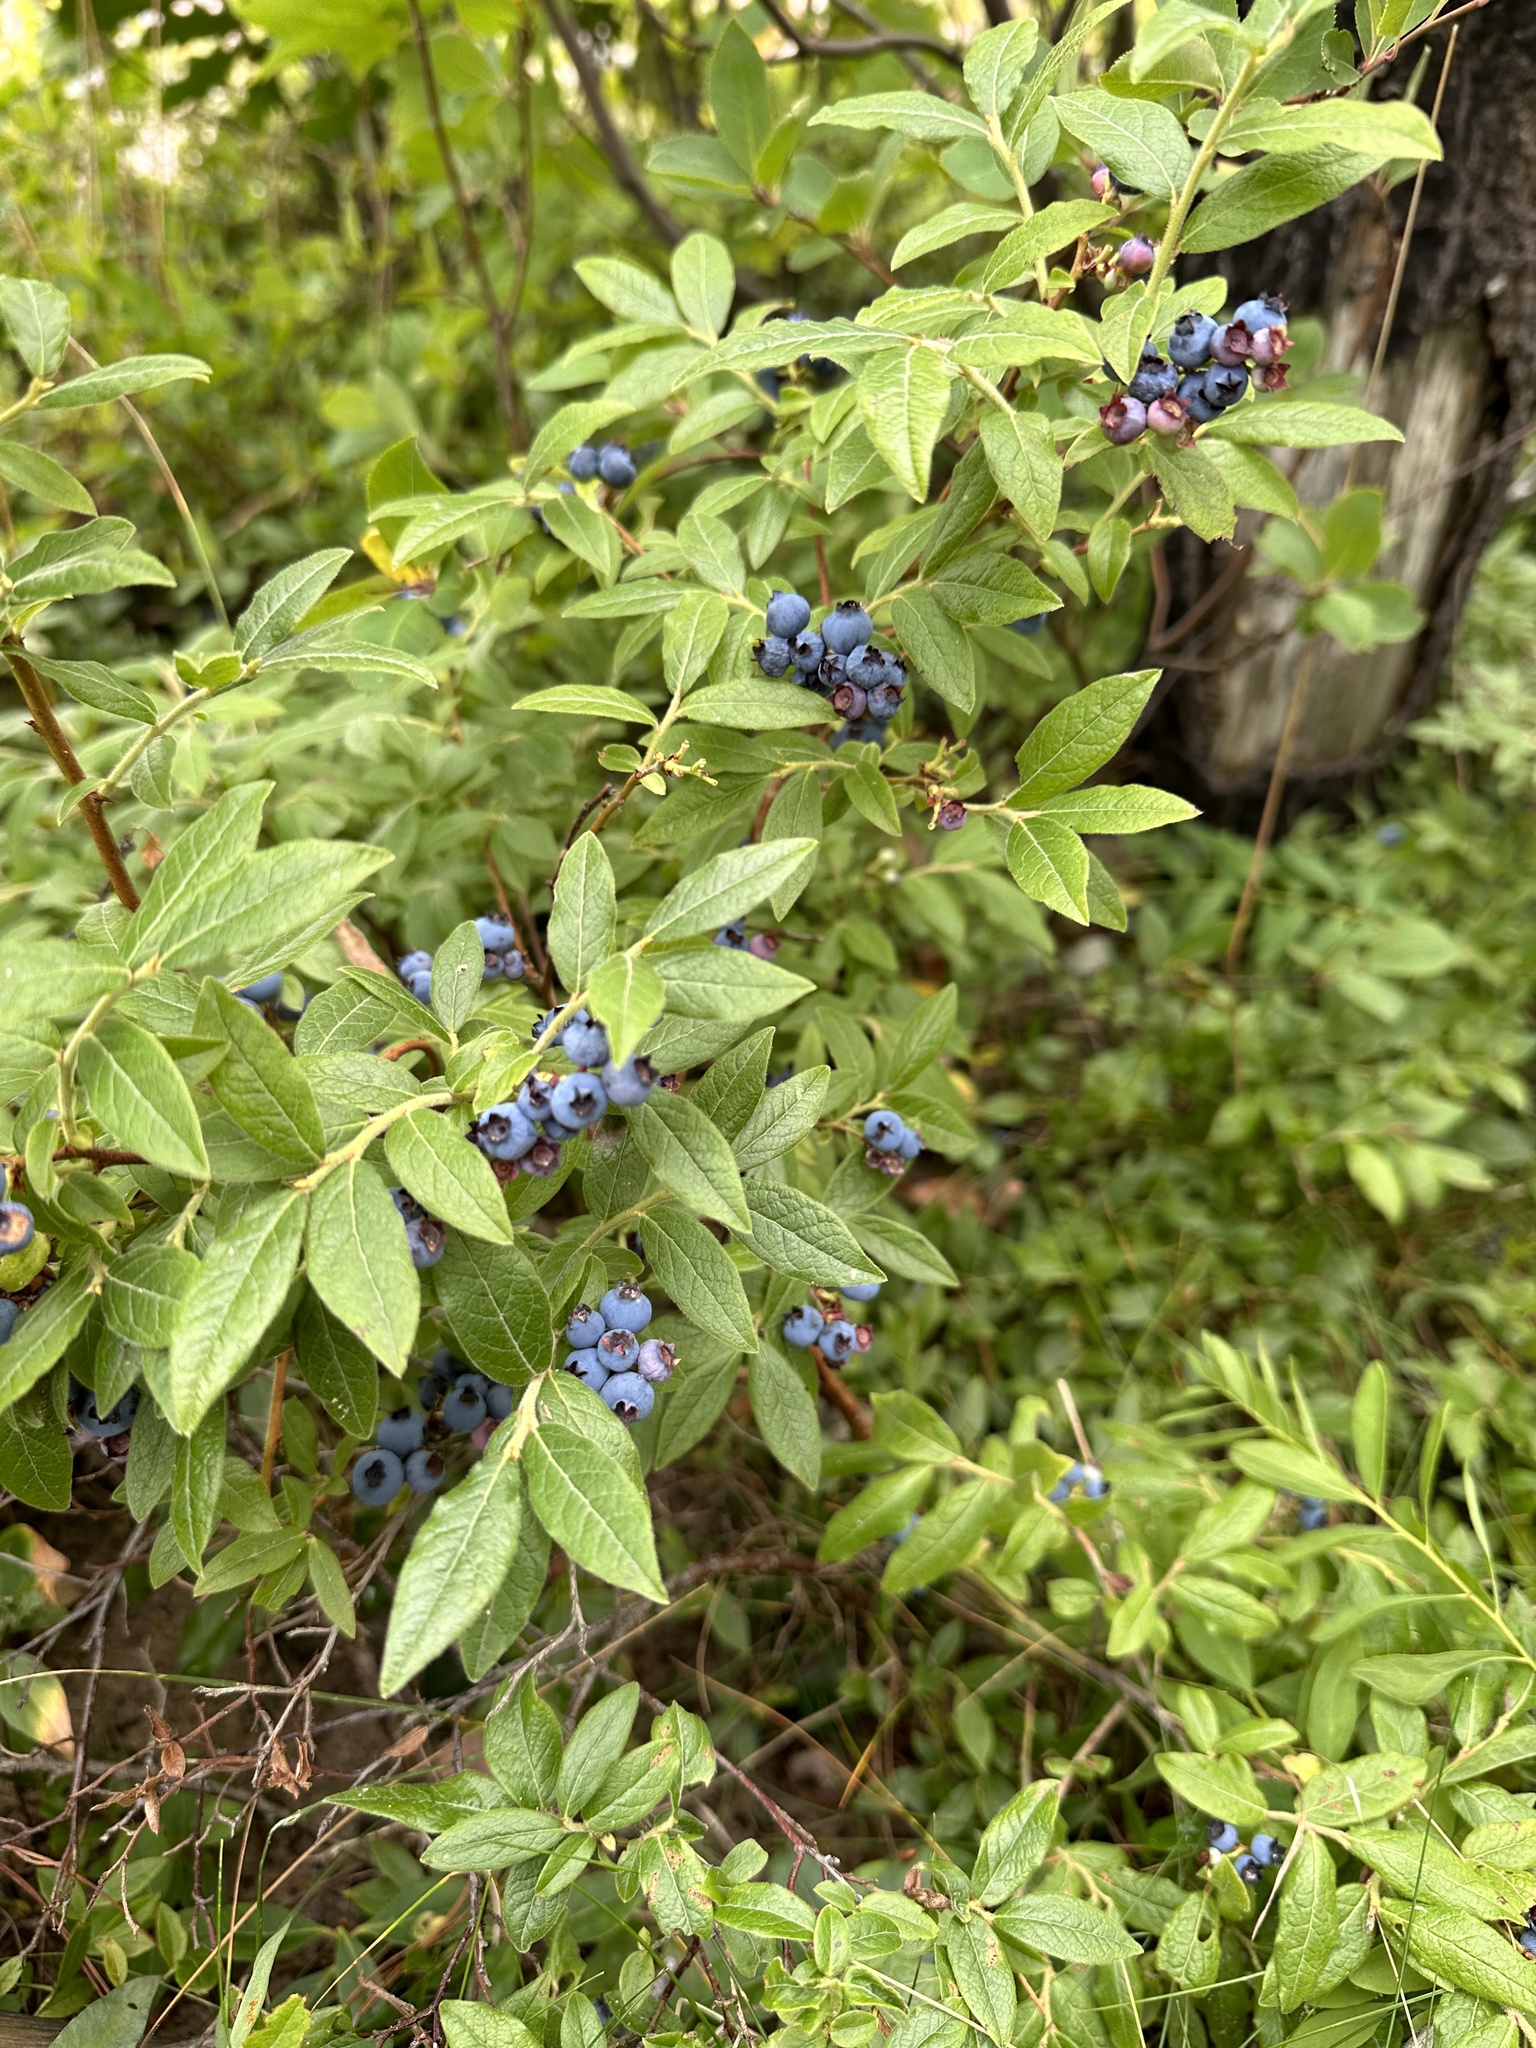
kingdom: Plantae
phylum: Tracheophyta
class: Magnoliopsida
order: Ericales
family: Ericaceae
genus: Vaccinium
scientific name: Vaccinium myrtilloides
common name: Canada blueberry
